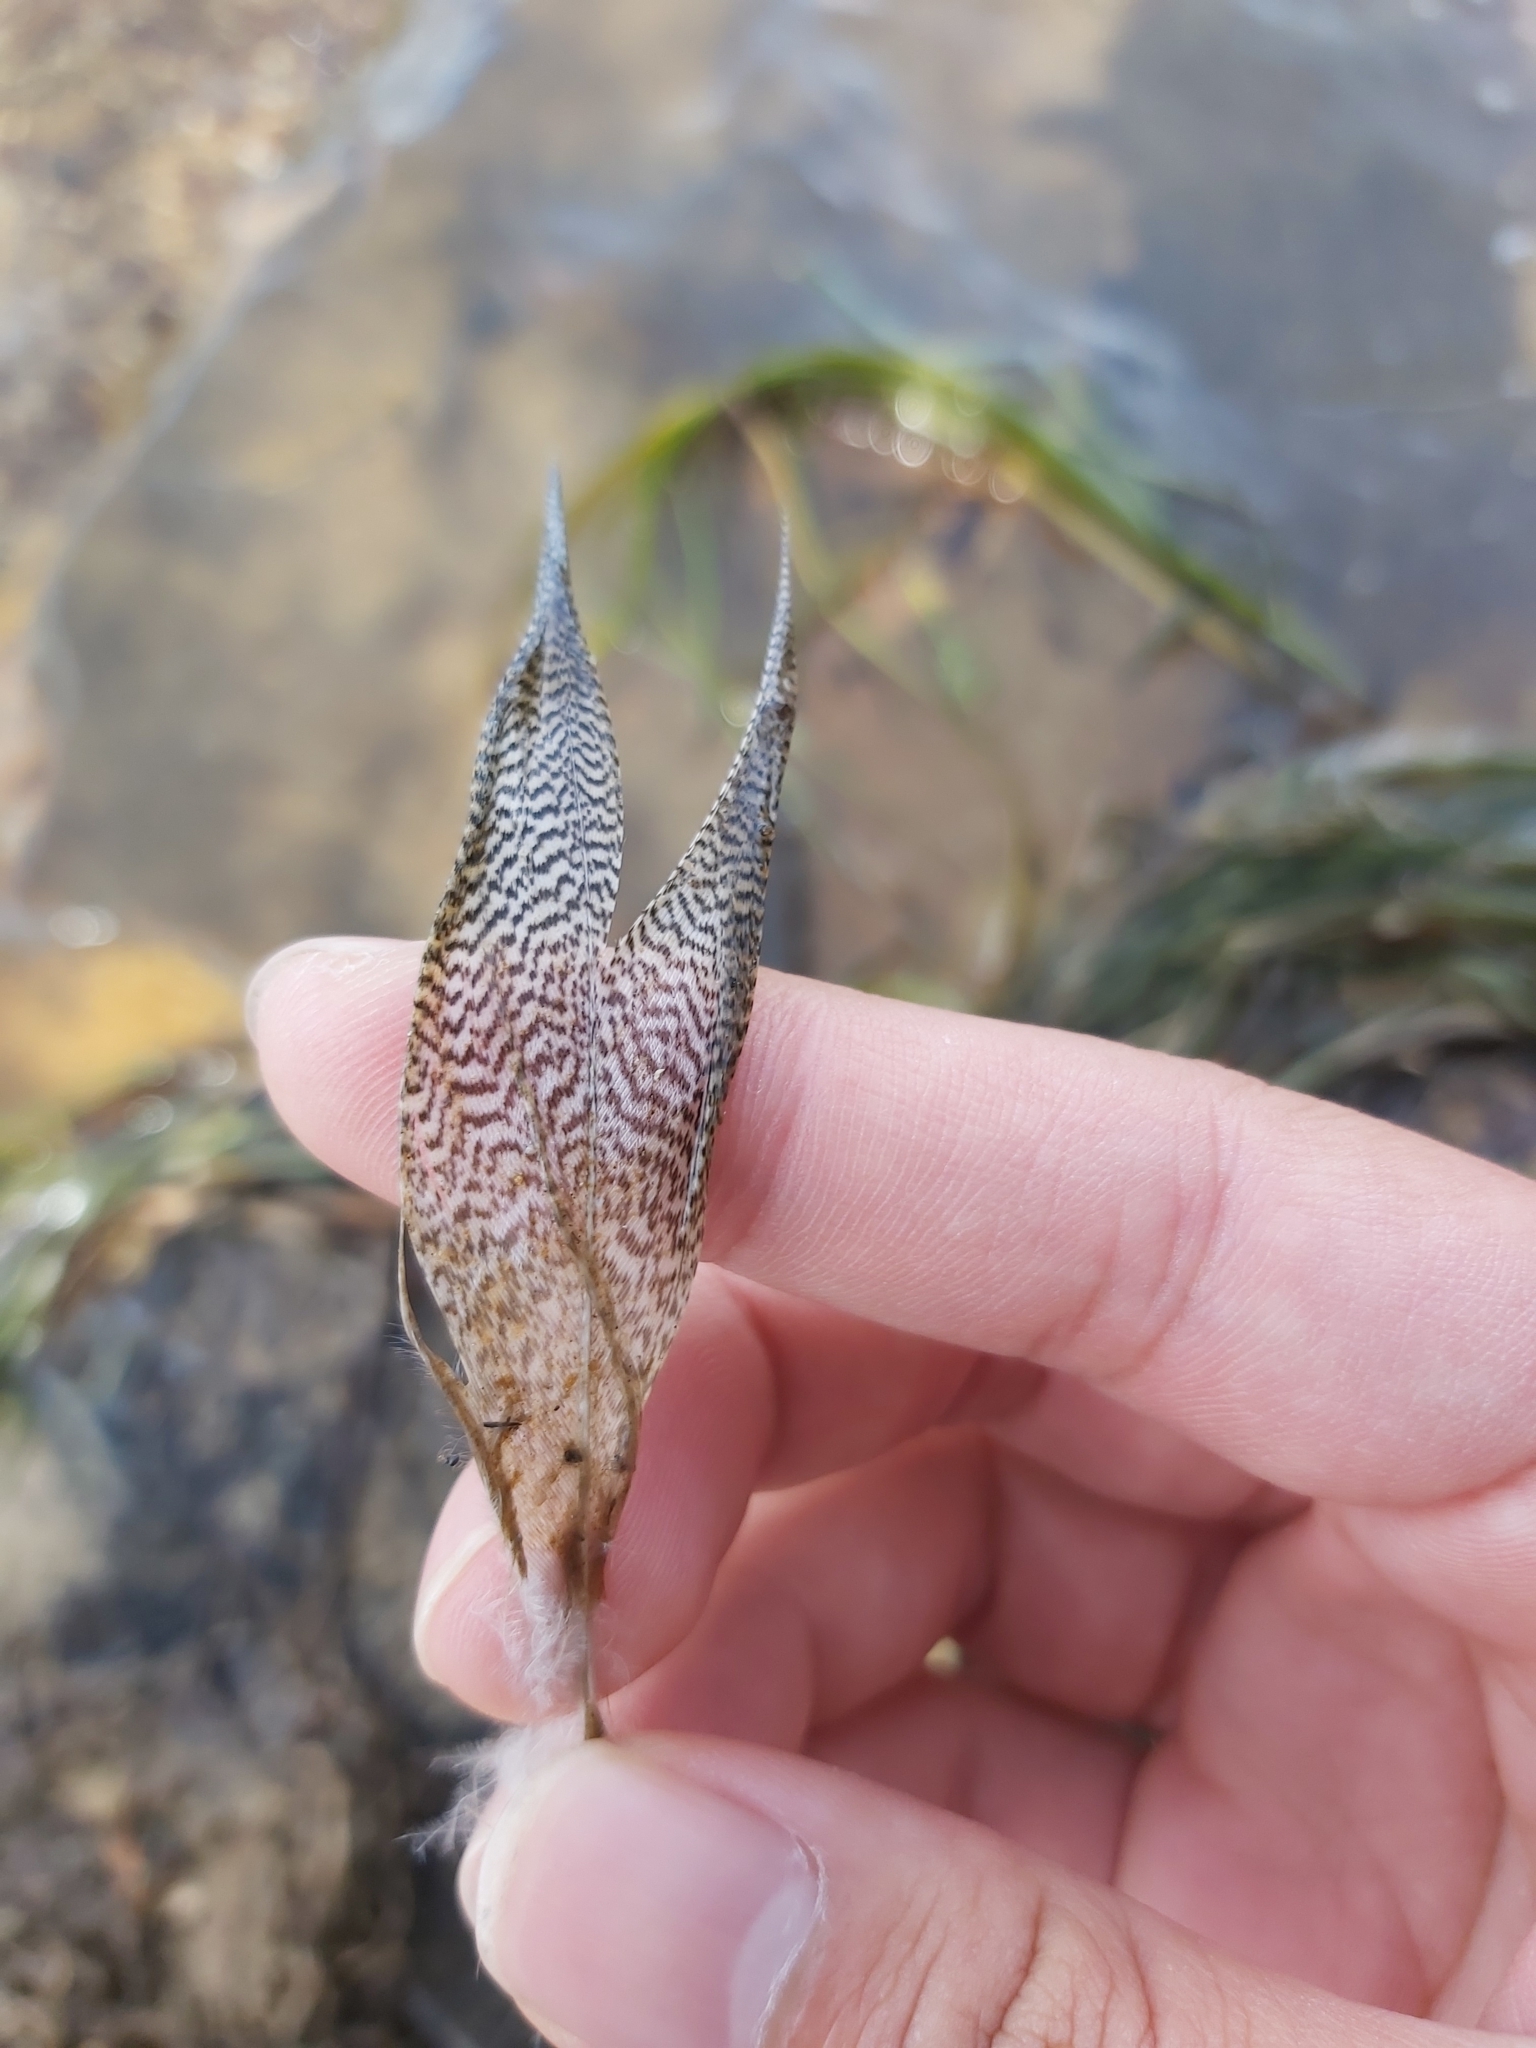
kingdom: Animalia
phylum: Chordata
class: Aves
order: Anseriformes
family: Anatidae
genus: Chenonetta
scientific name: Chenonetta jubata
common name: Maned duck
